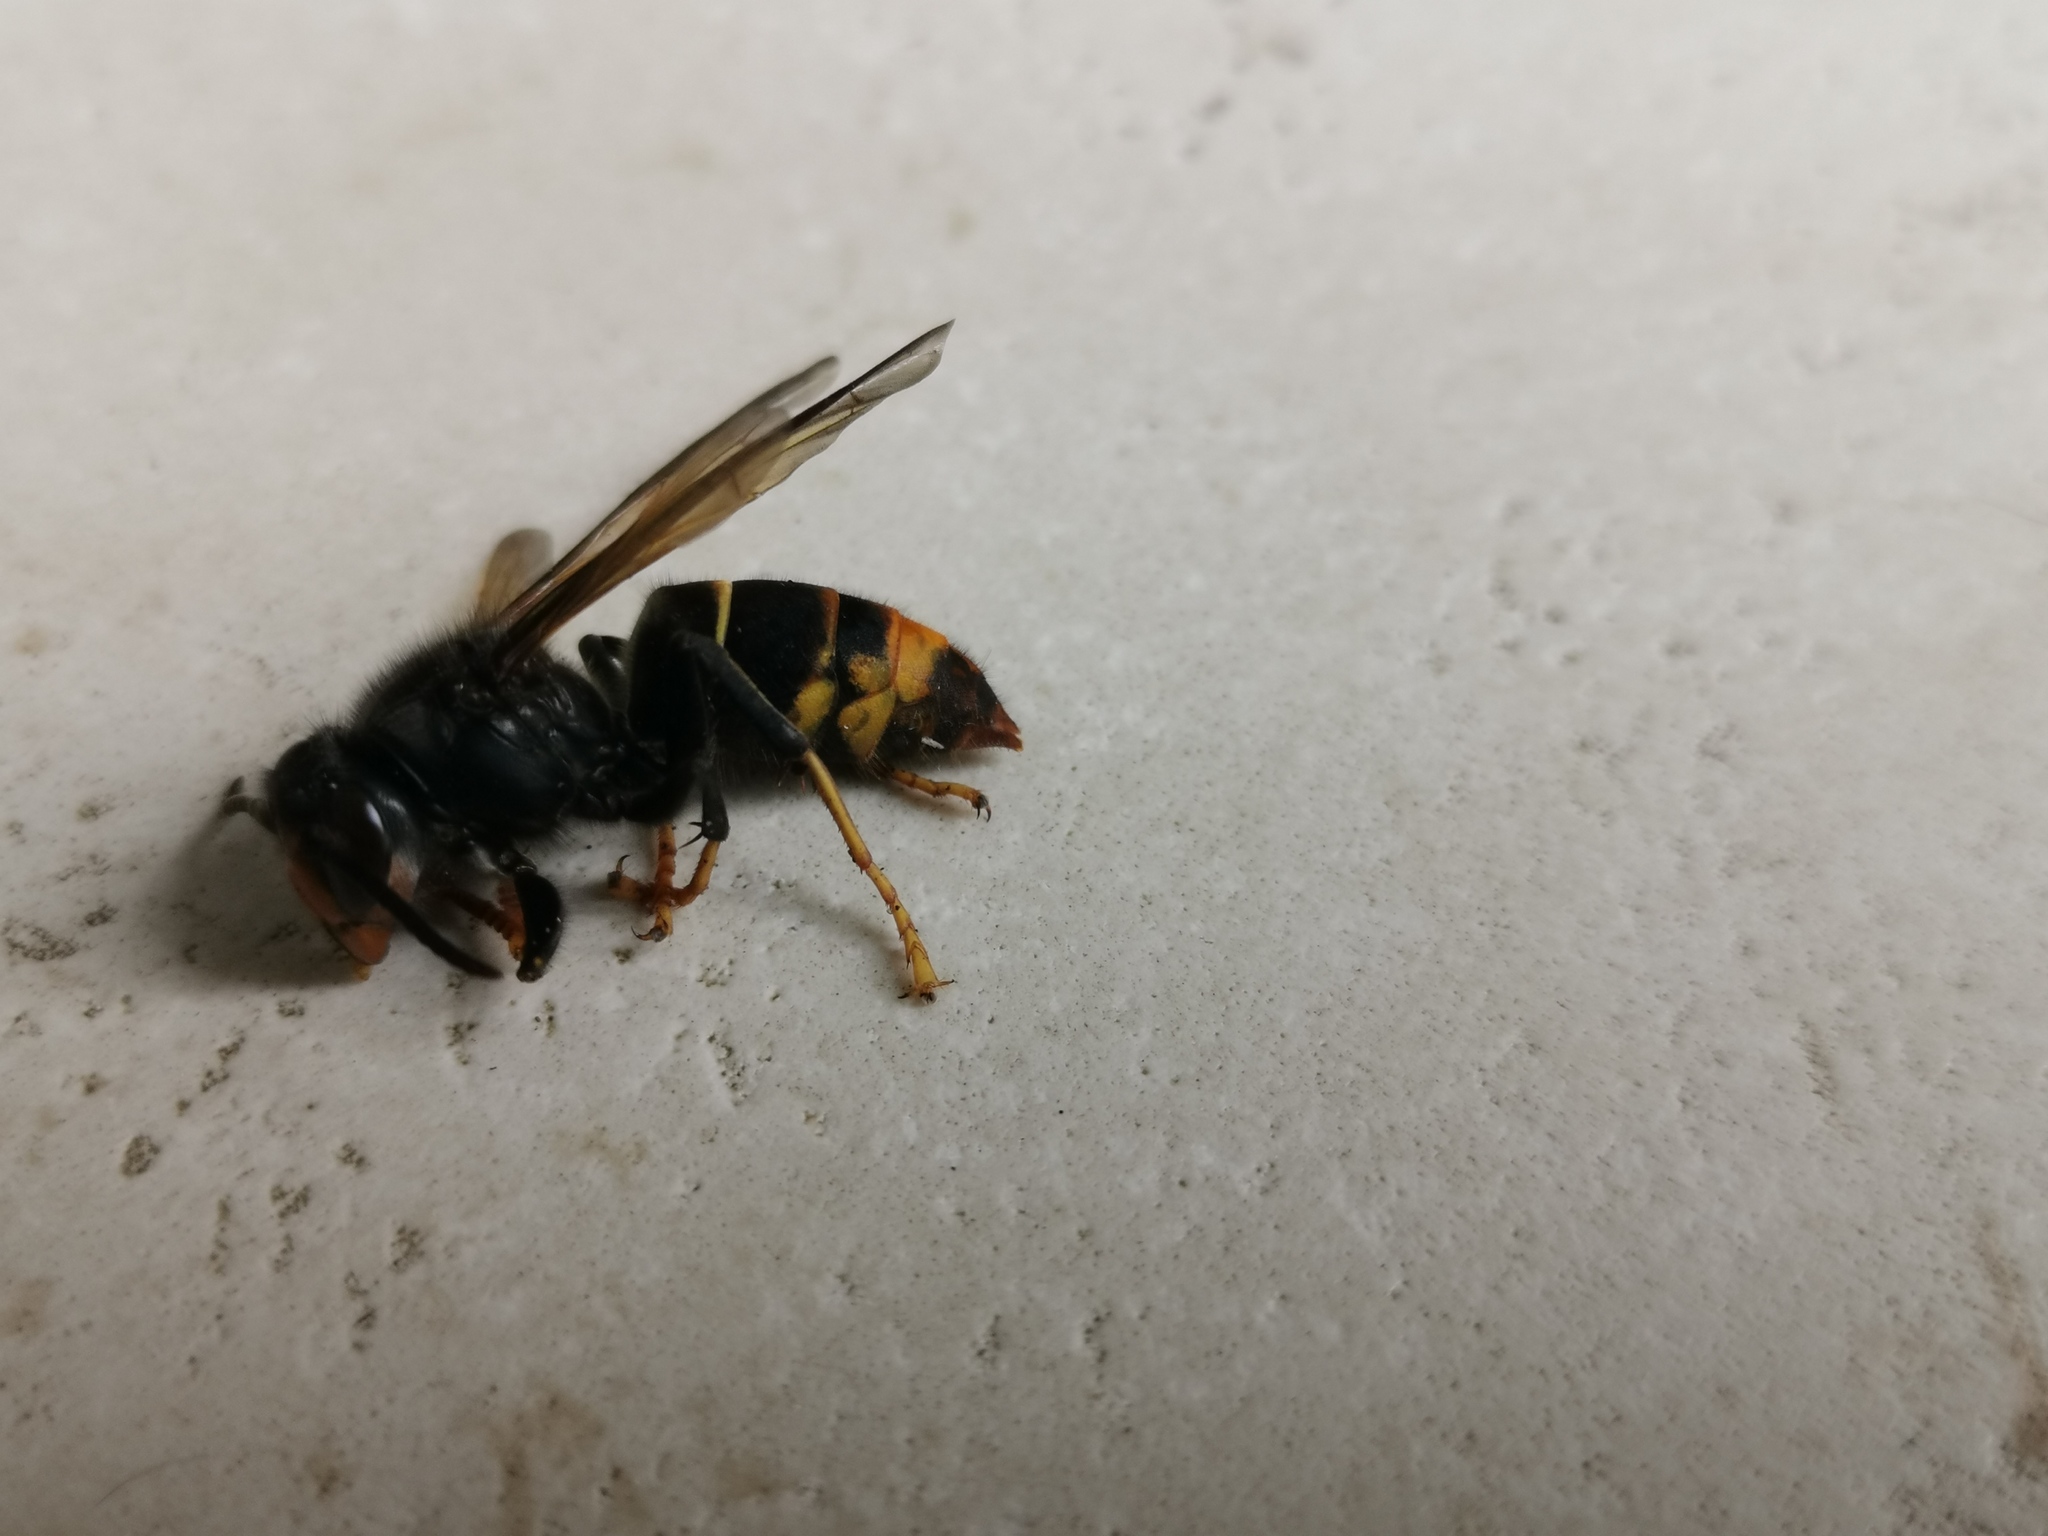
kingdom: Animalia
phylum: Arthropoda
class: Insecta
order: Hymenoptera
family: Vespidae
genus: Vespa
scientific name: Vespa velutina
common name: Asian hornet
